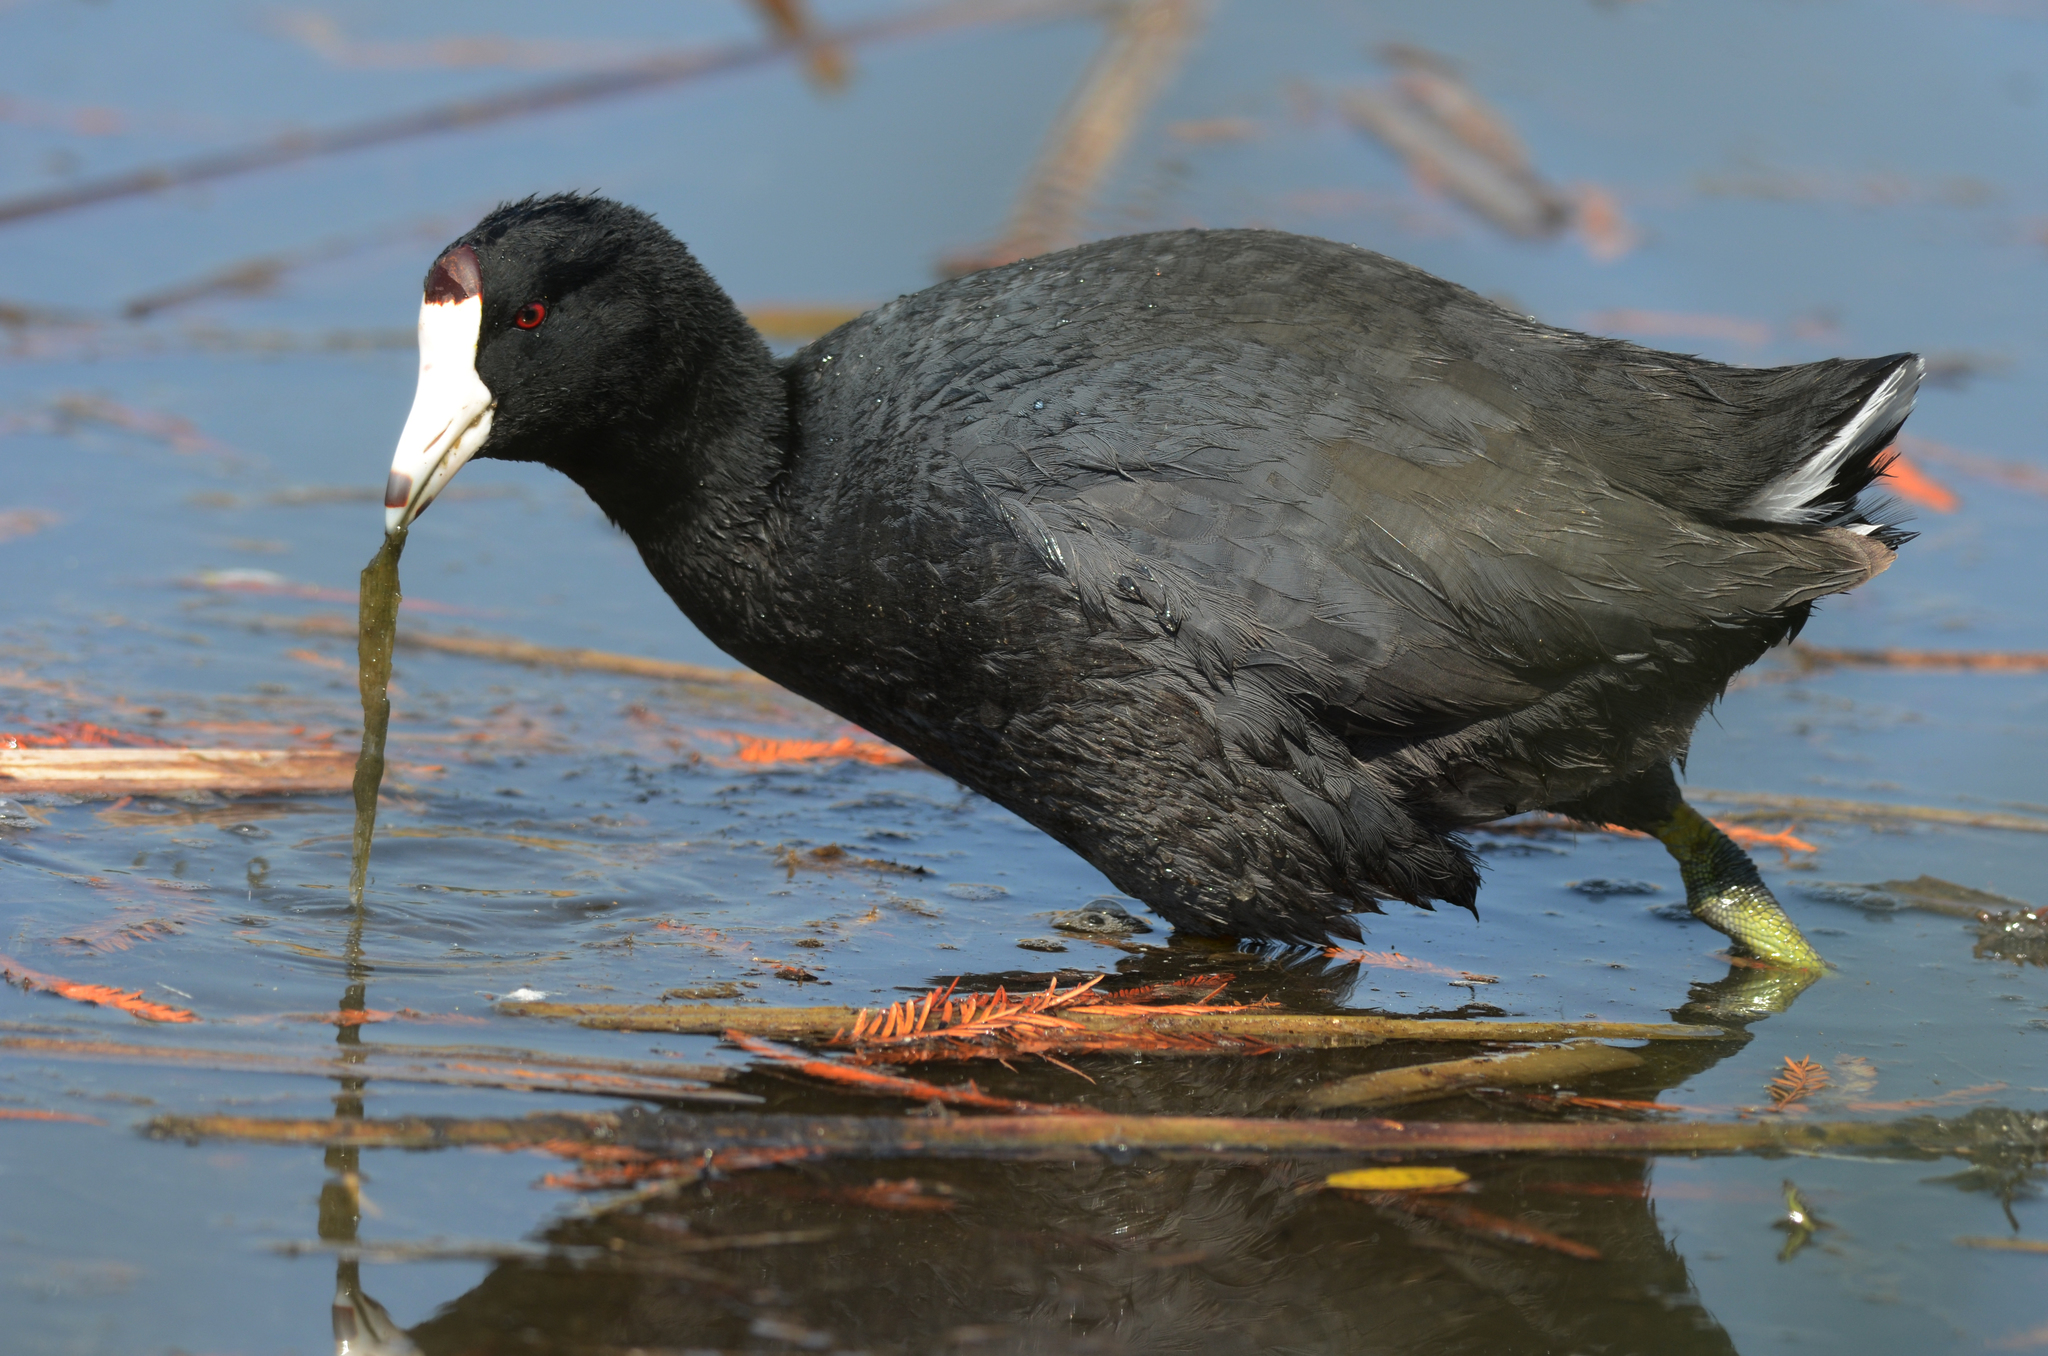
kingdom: Animalia
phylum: Chordata
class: Aves
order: Gruiformes
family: Rallidae
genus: Fulica
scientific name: Fulica americana
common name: American coot
